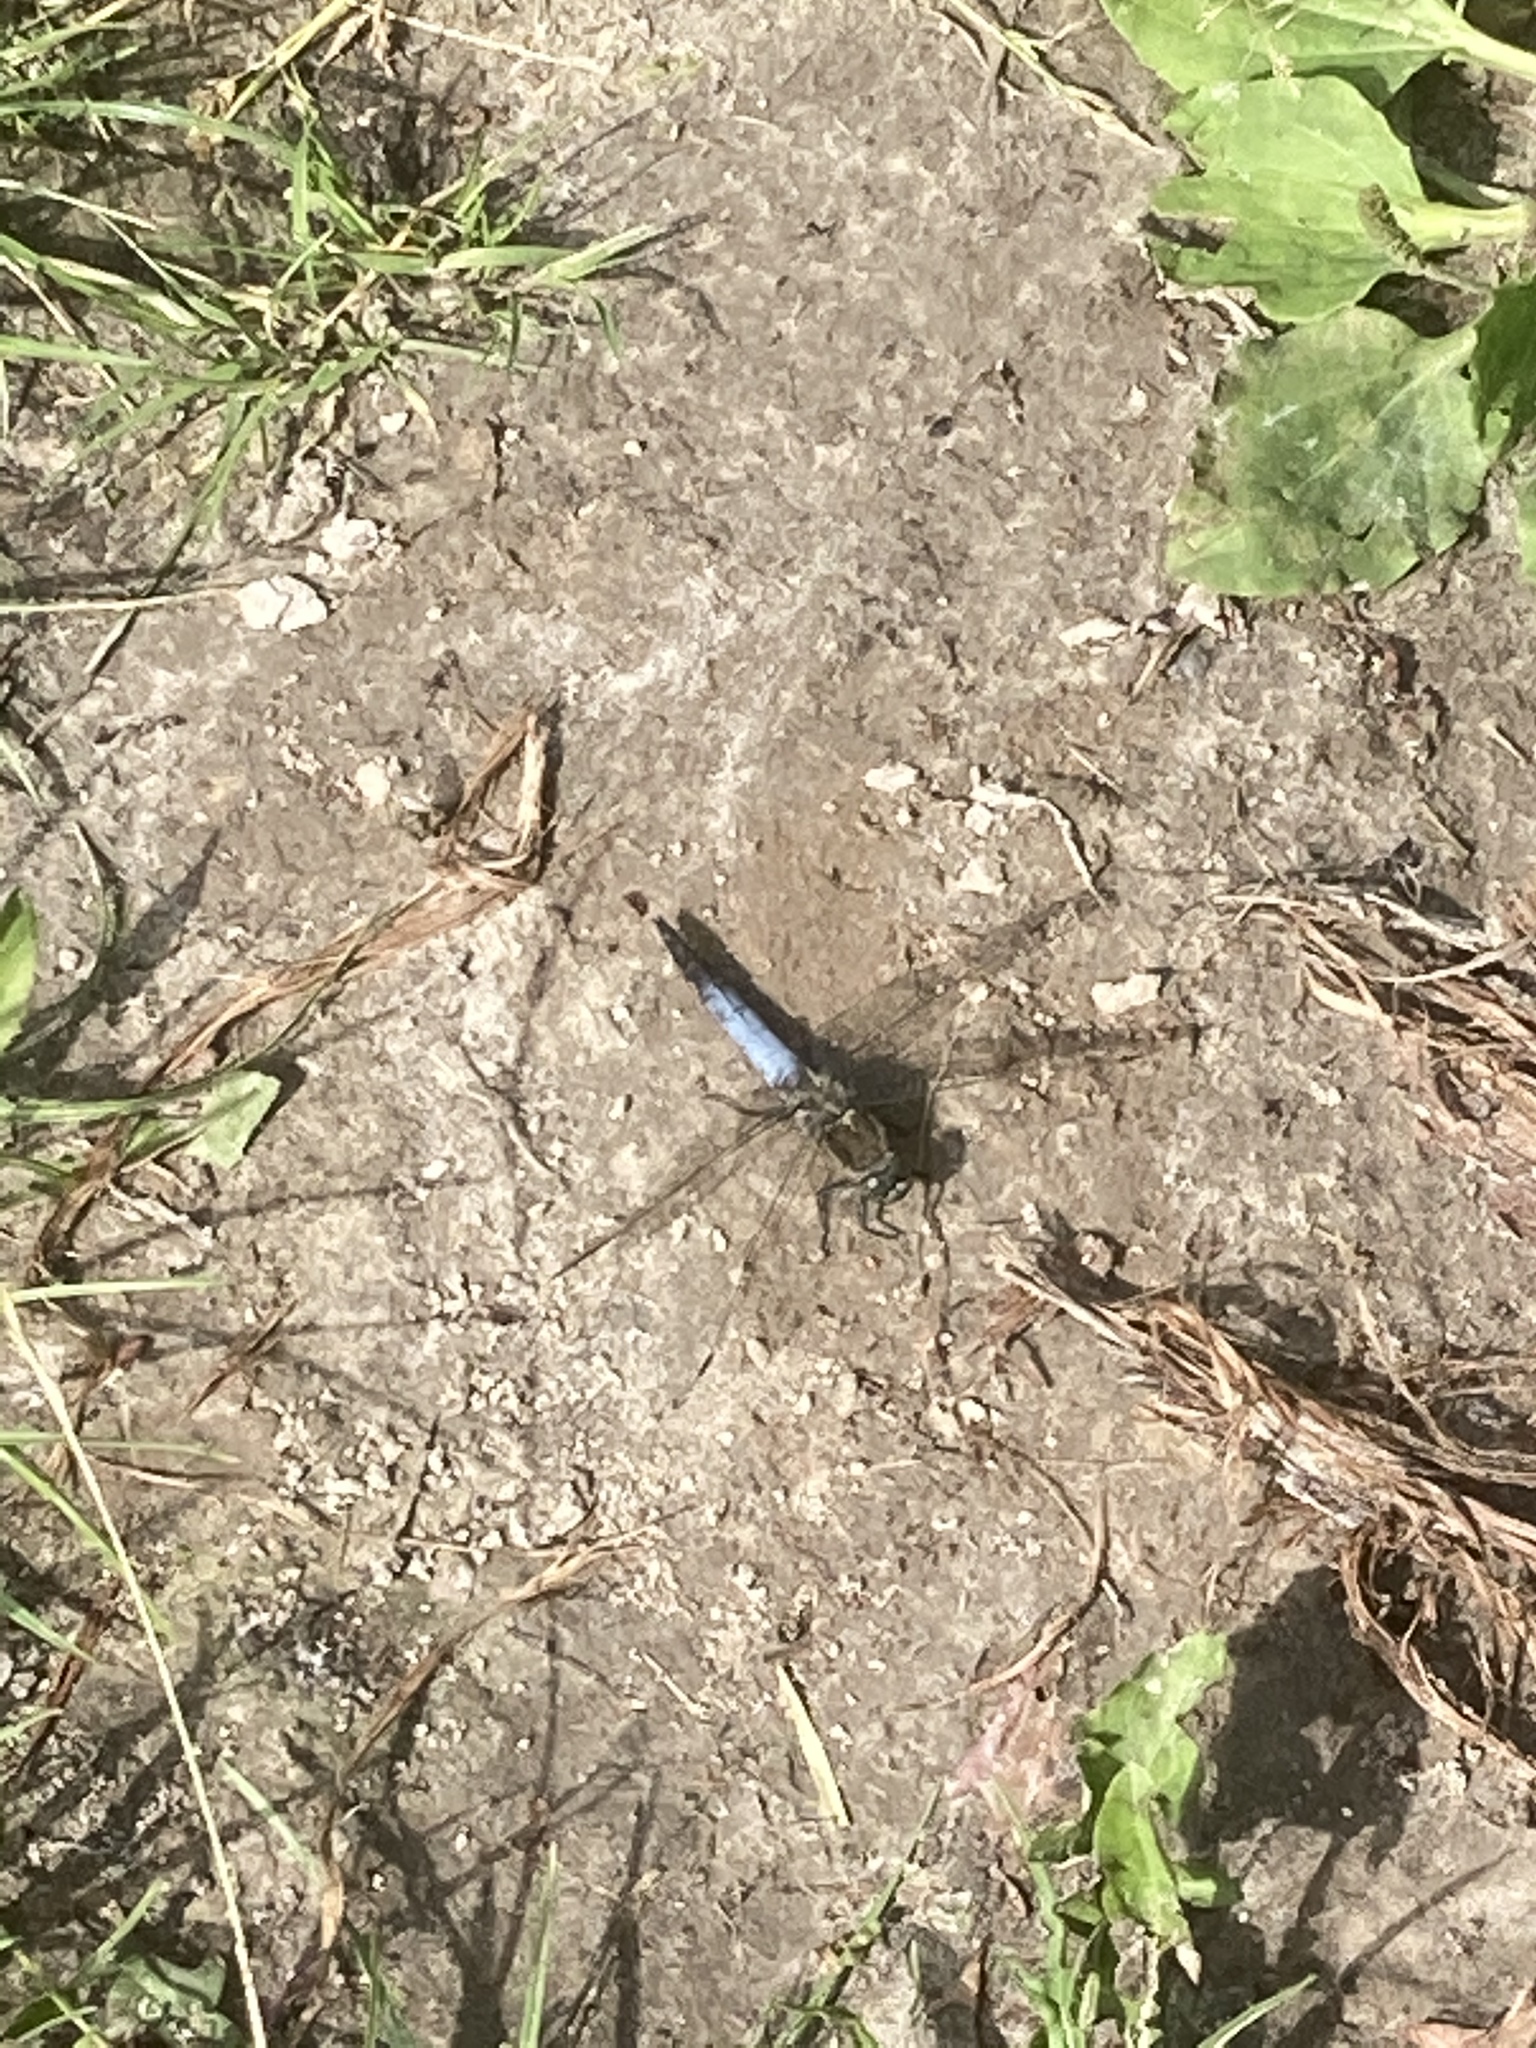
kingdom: Animalia
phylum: Arthropoda
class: Insecta
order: Odonata
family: Libellulidae
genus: Orthetrum
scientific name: Orthetrum cancellatum
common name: Black-tailed skimmer
